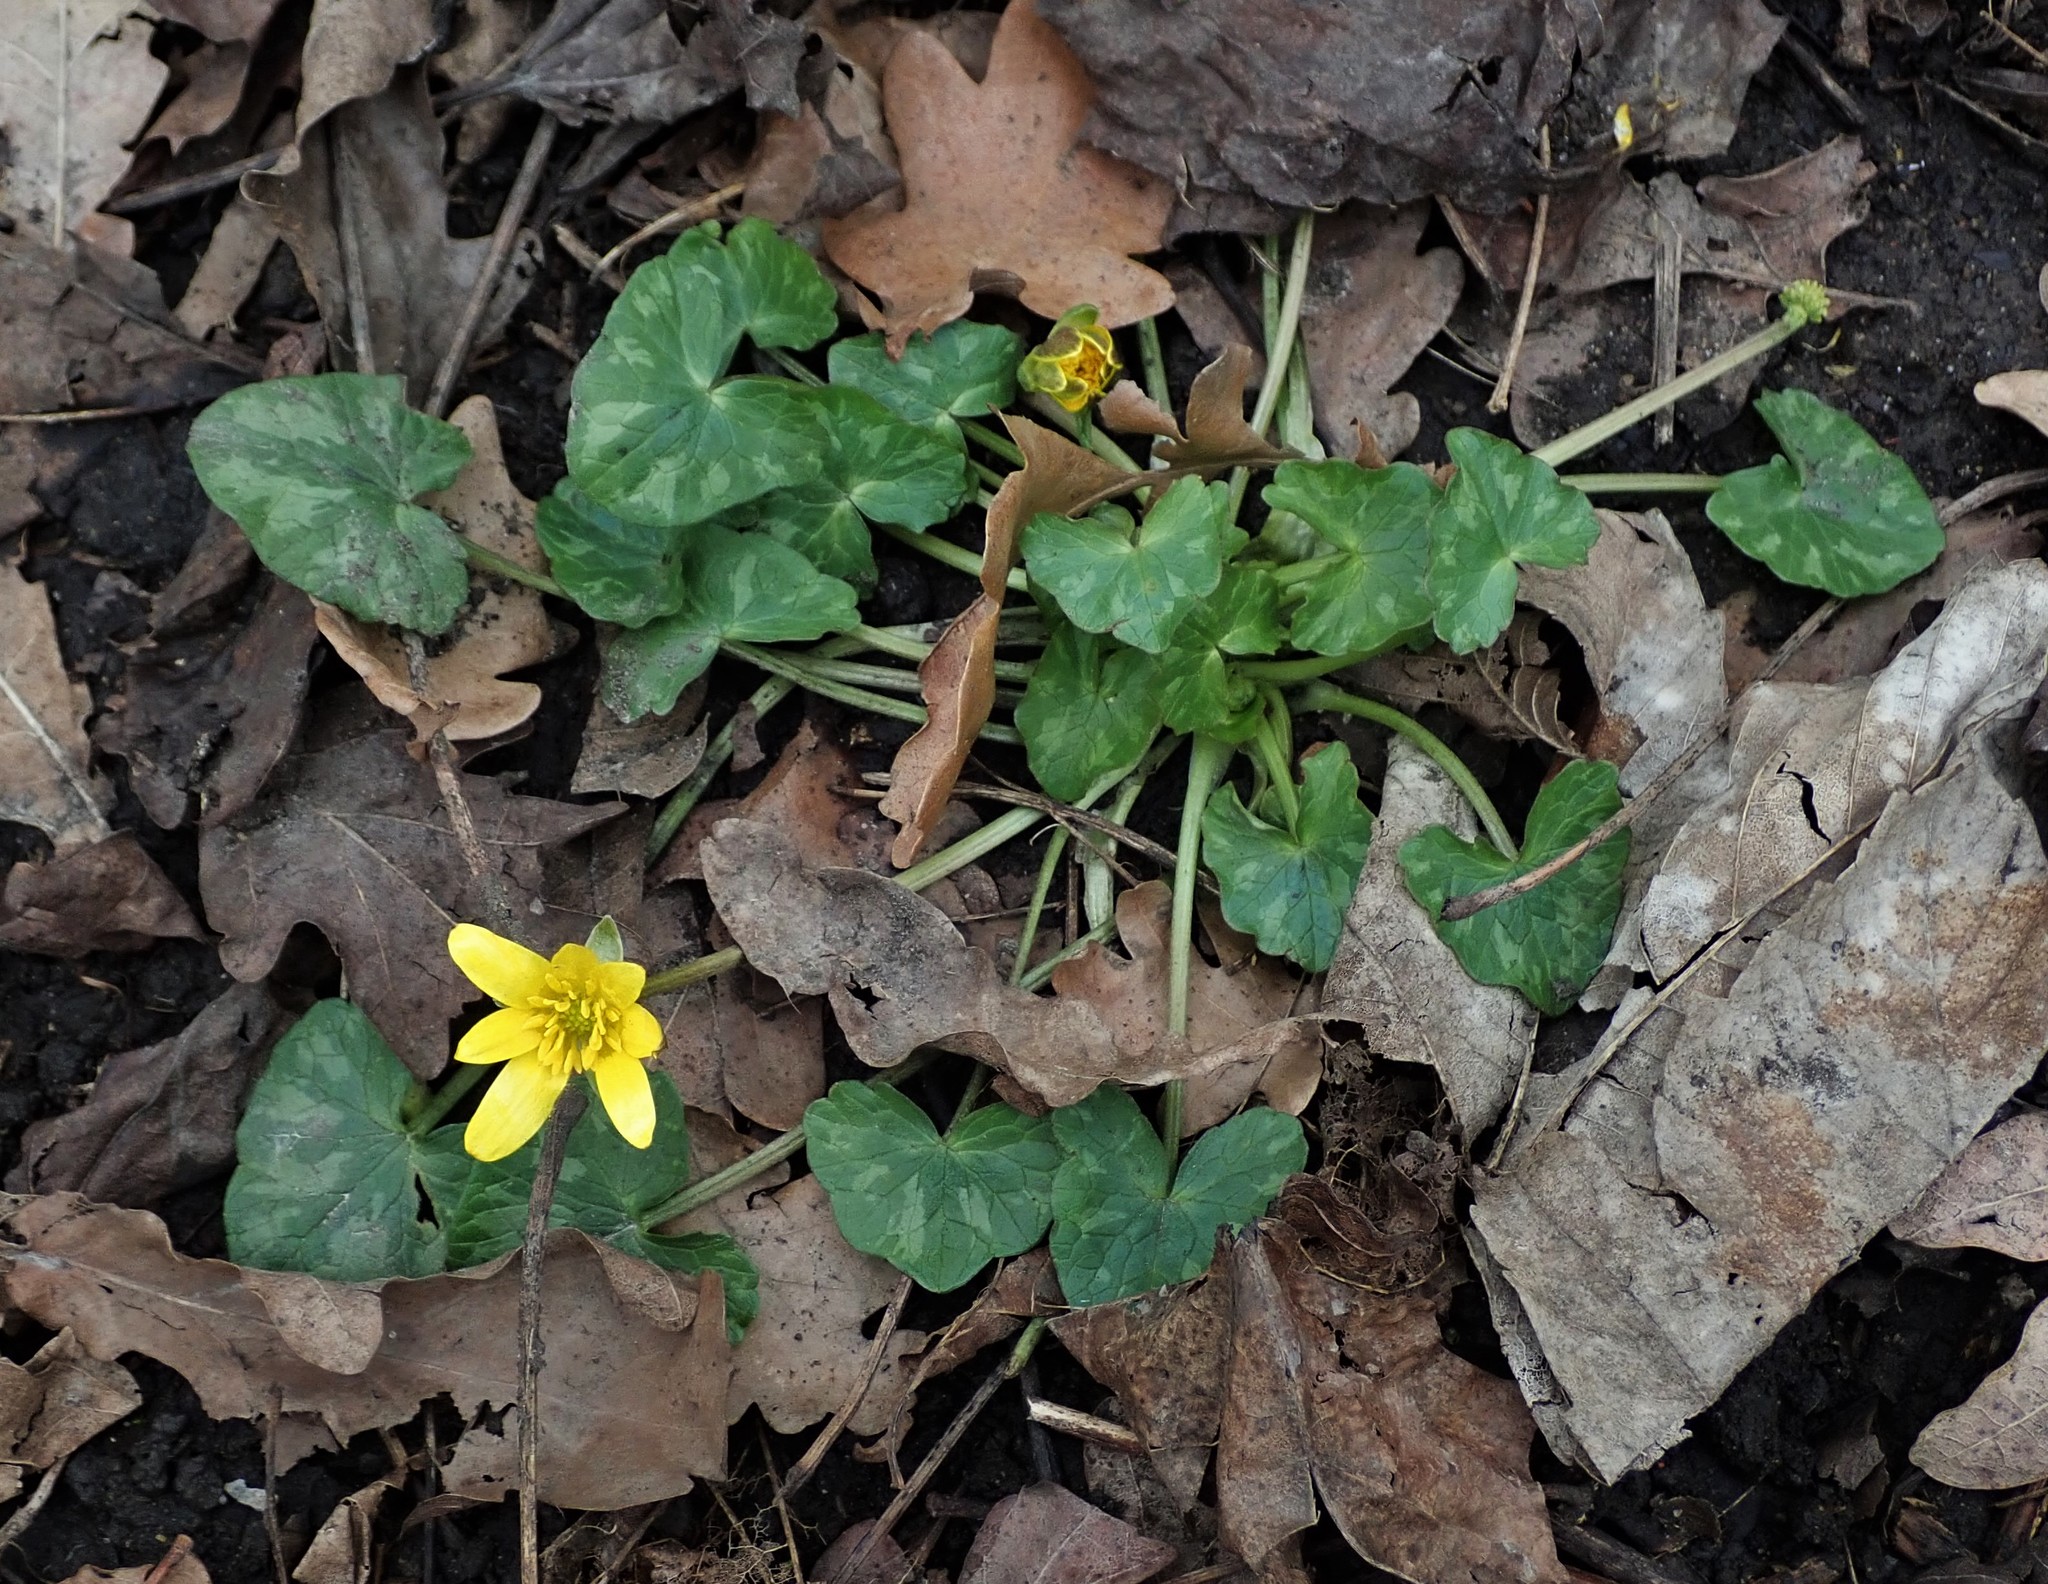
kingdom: Plantae
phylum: Tracheophyta
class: Magnoliopsida
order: Ranunculales
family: Ranunculaceae
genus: Ficaria
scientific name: Ficaria ambigua
